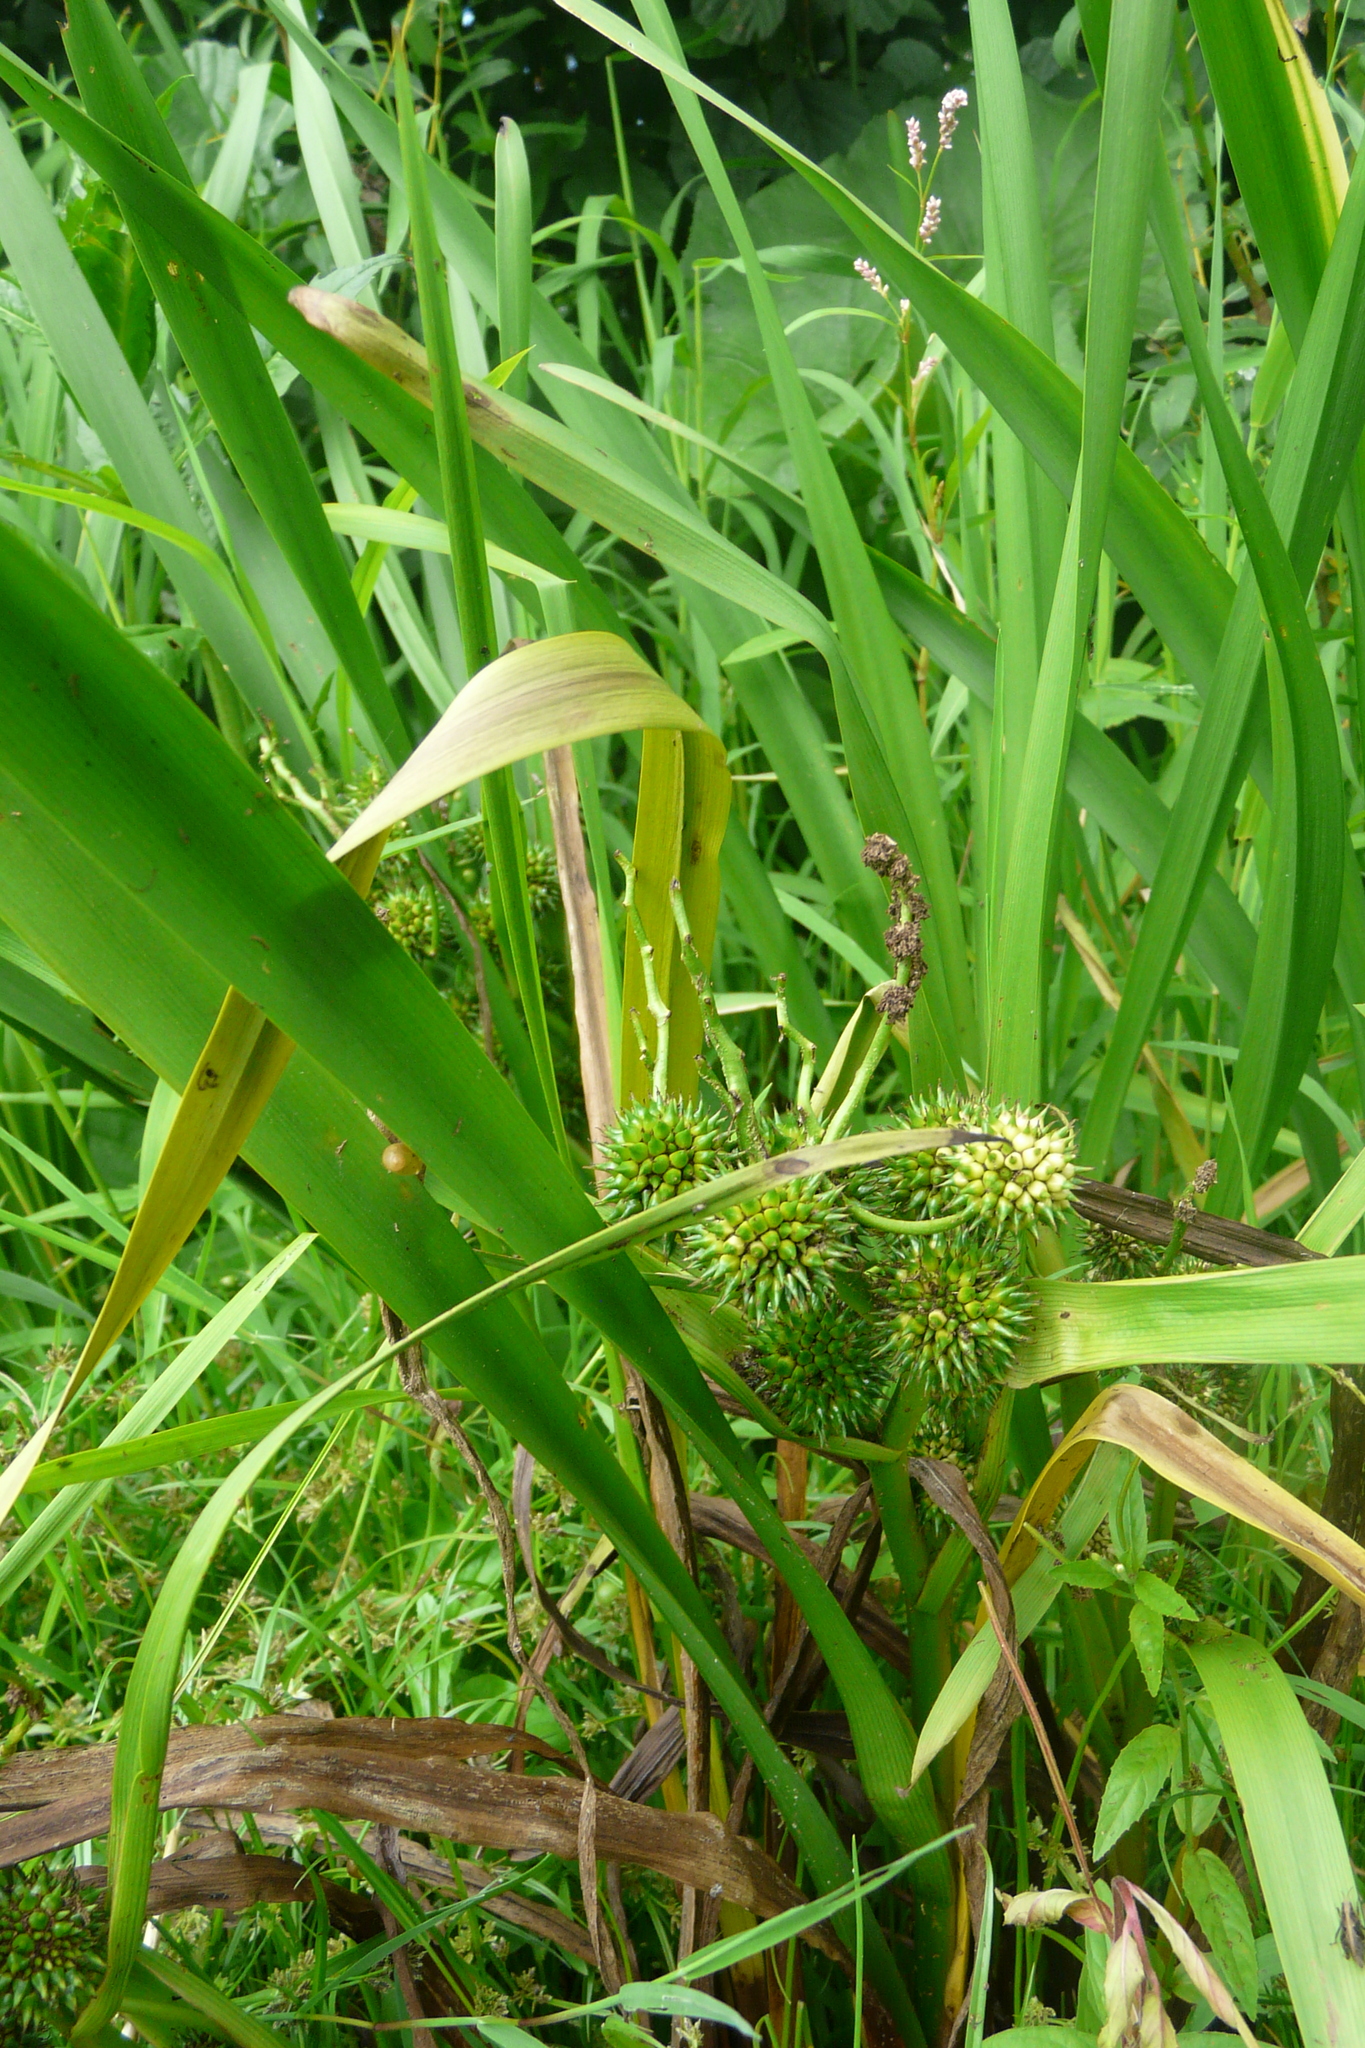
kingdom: Plantae
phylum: Tracheophyta
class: Liliopsida
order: Poales
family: Typhaceae
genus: Sparganium
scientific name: Sparganium erectum
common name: Branched bur-reed
